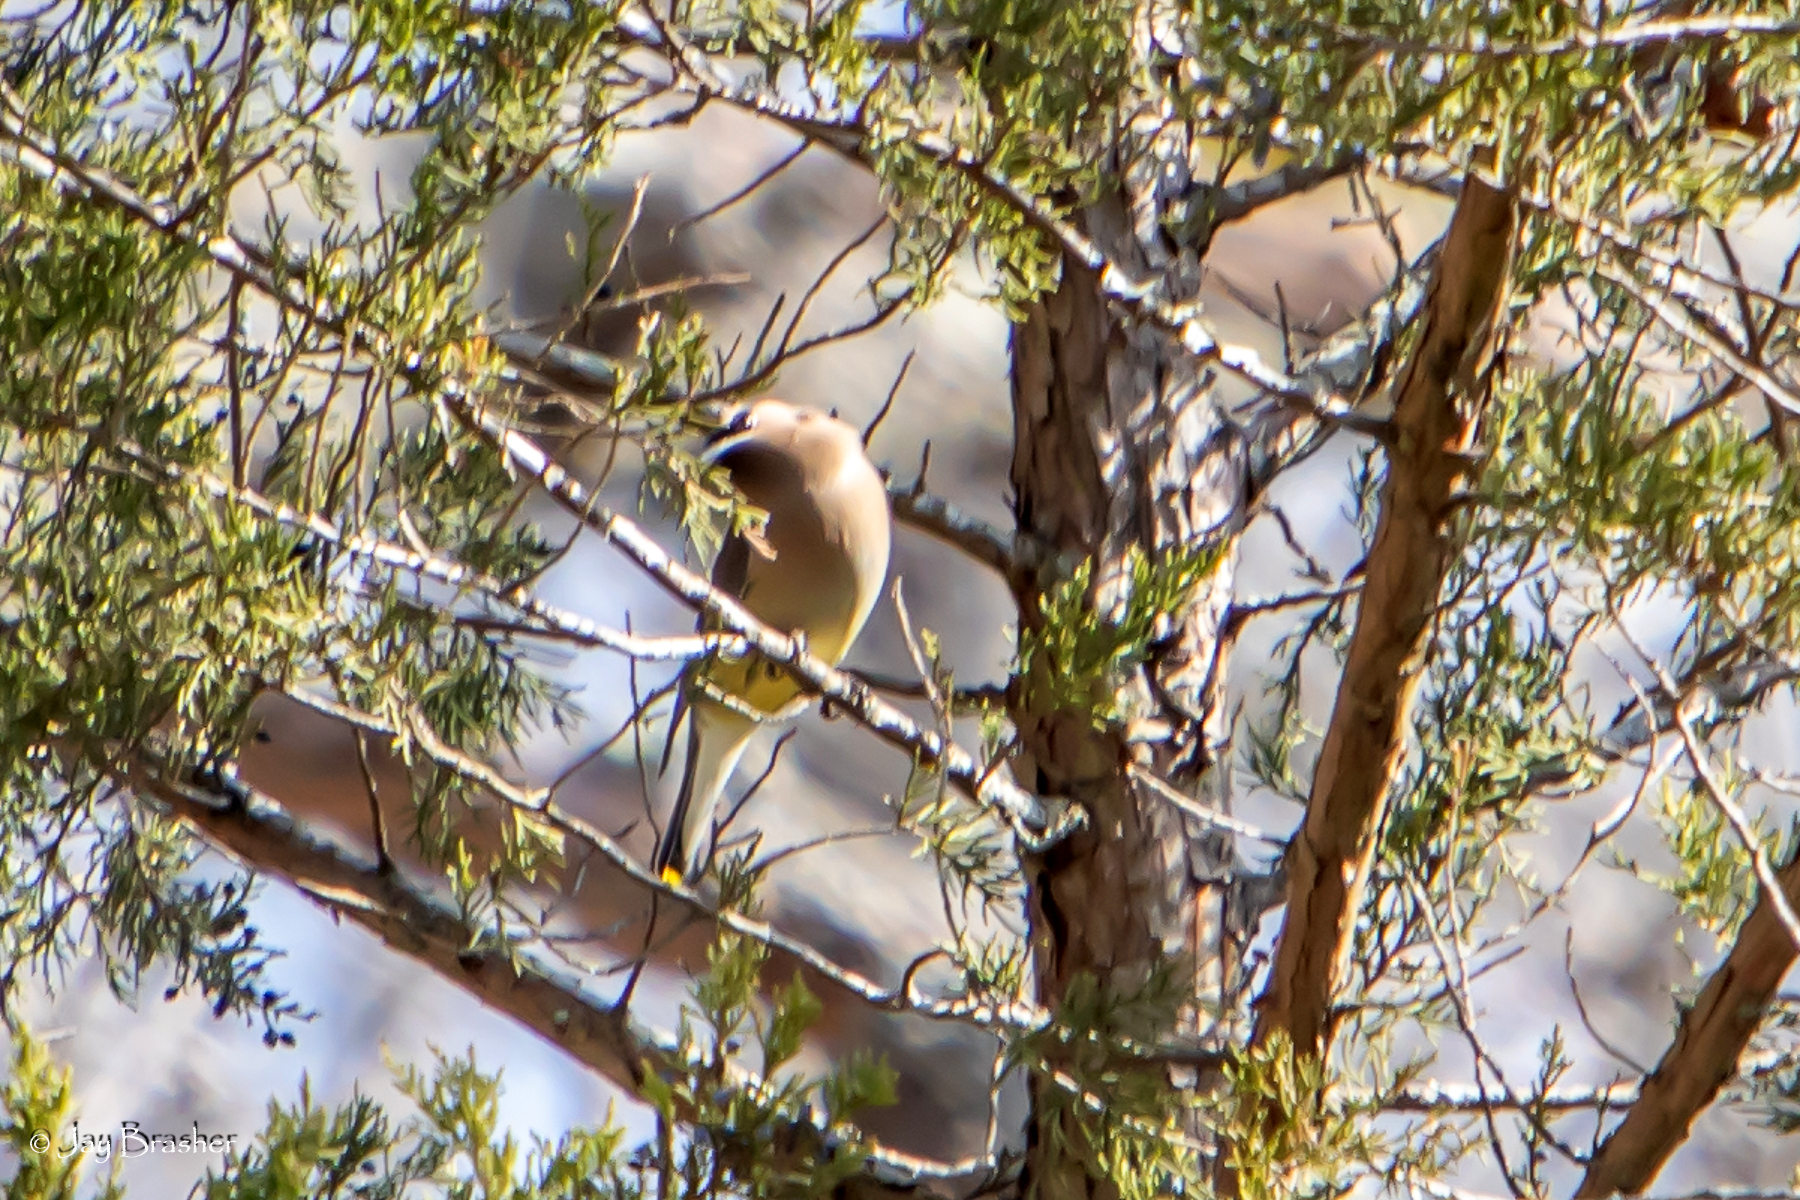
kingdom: Animalia
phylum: Chordata
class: Aves
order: Passeriformes
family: Bombycillidae
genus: Bombycilla
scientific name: Bombycilla cedrorum
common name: Cedar waxwing
